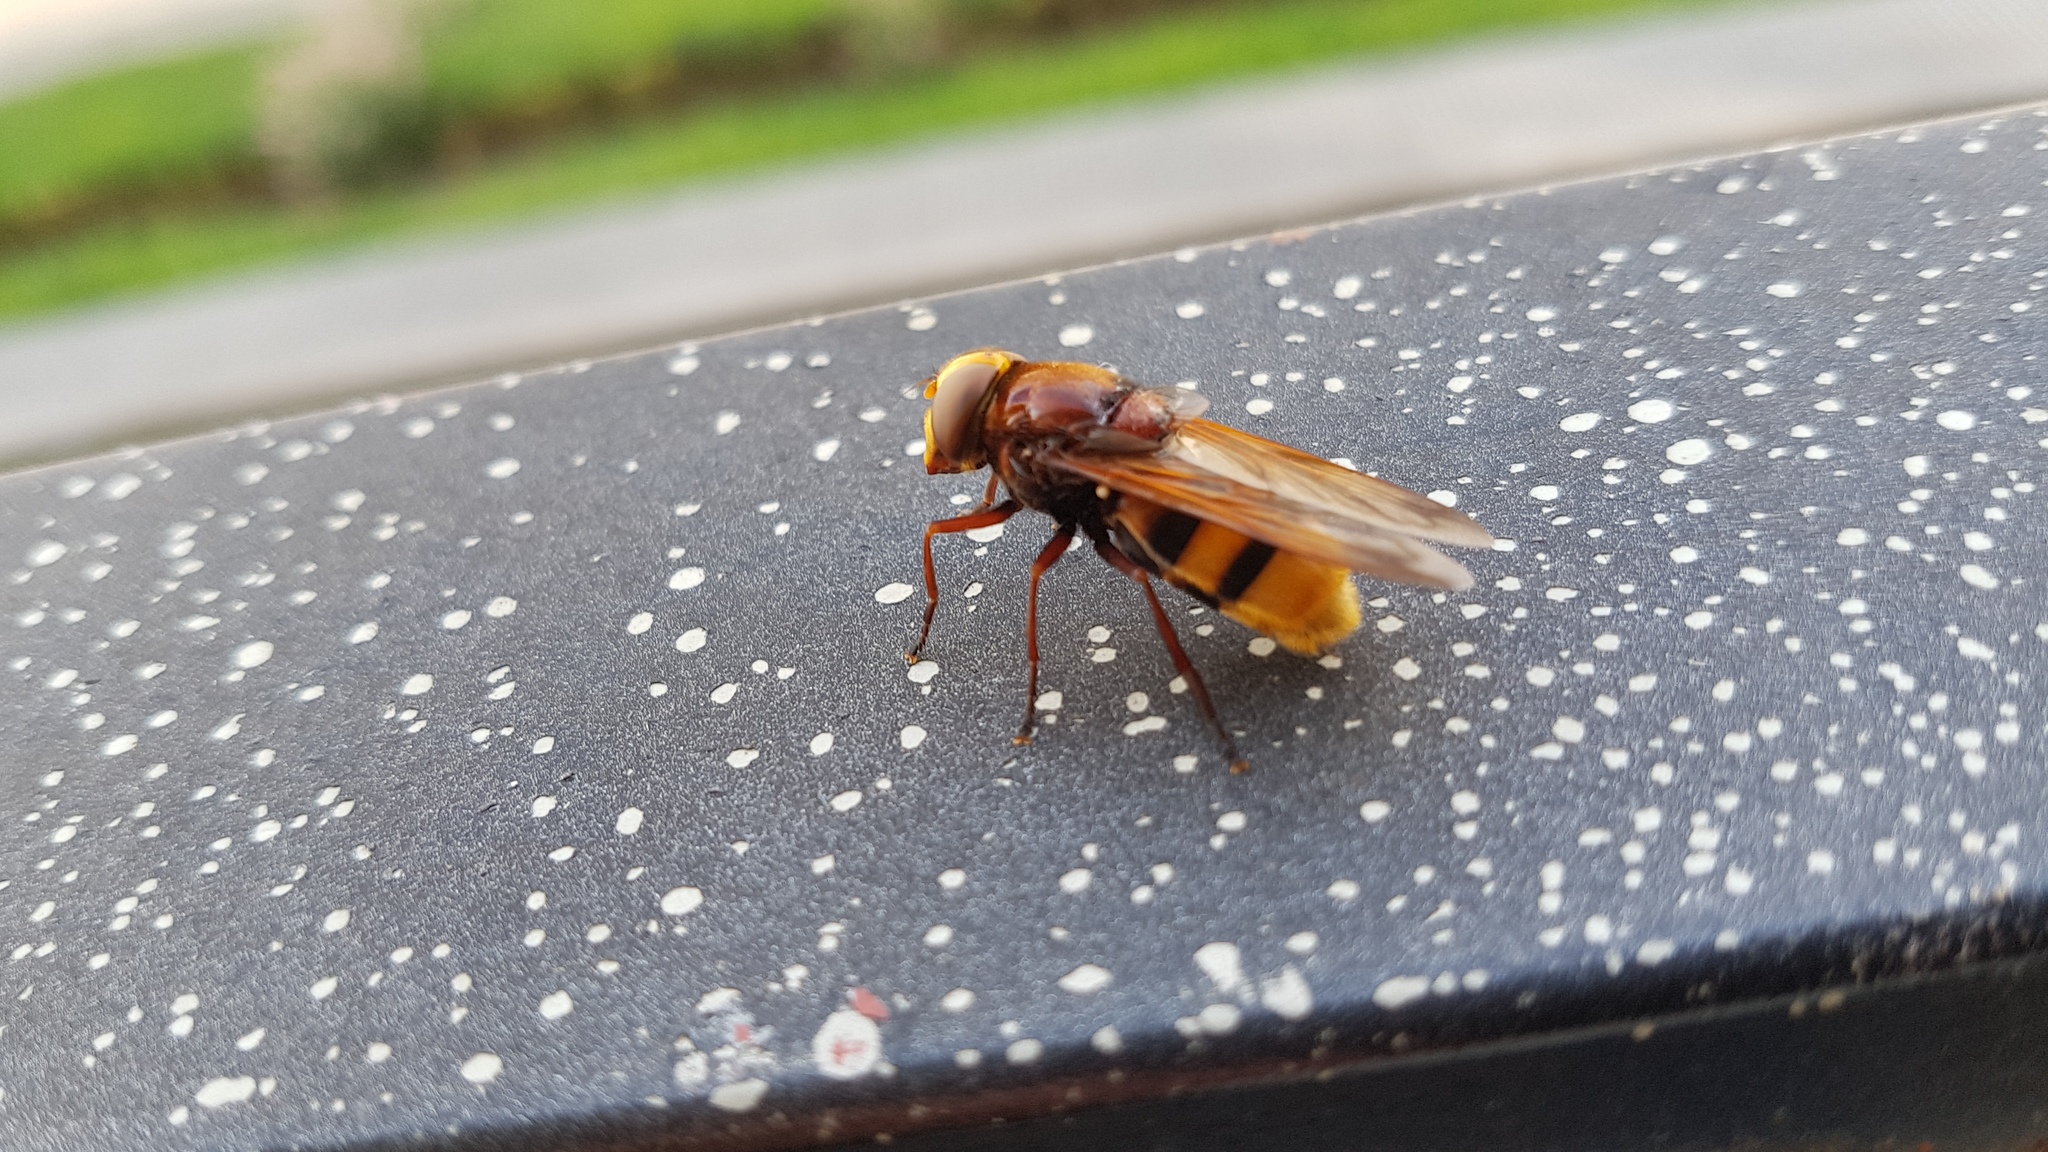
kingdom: Animalia
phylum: Arthropoda
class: Insecta
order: Diptera
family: Syrphidae
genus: Volucella
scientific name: Volucella zonaria
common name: Hornet hoverfly
